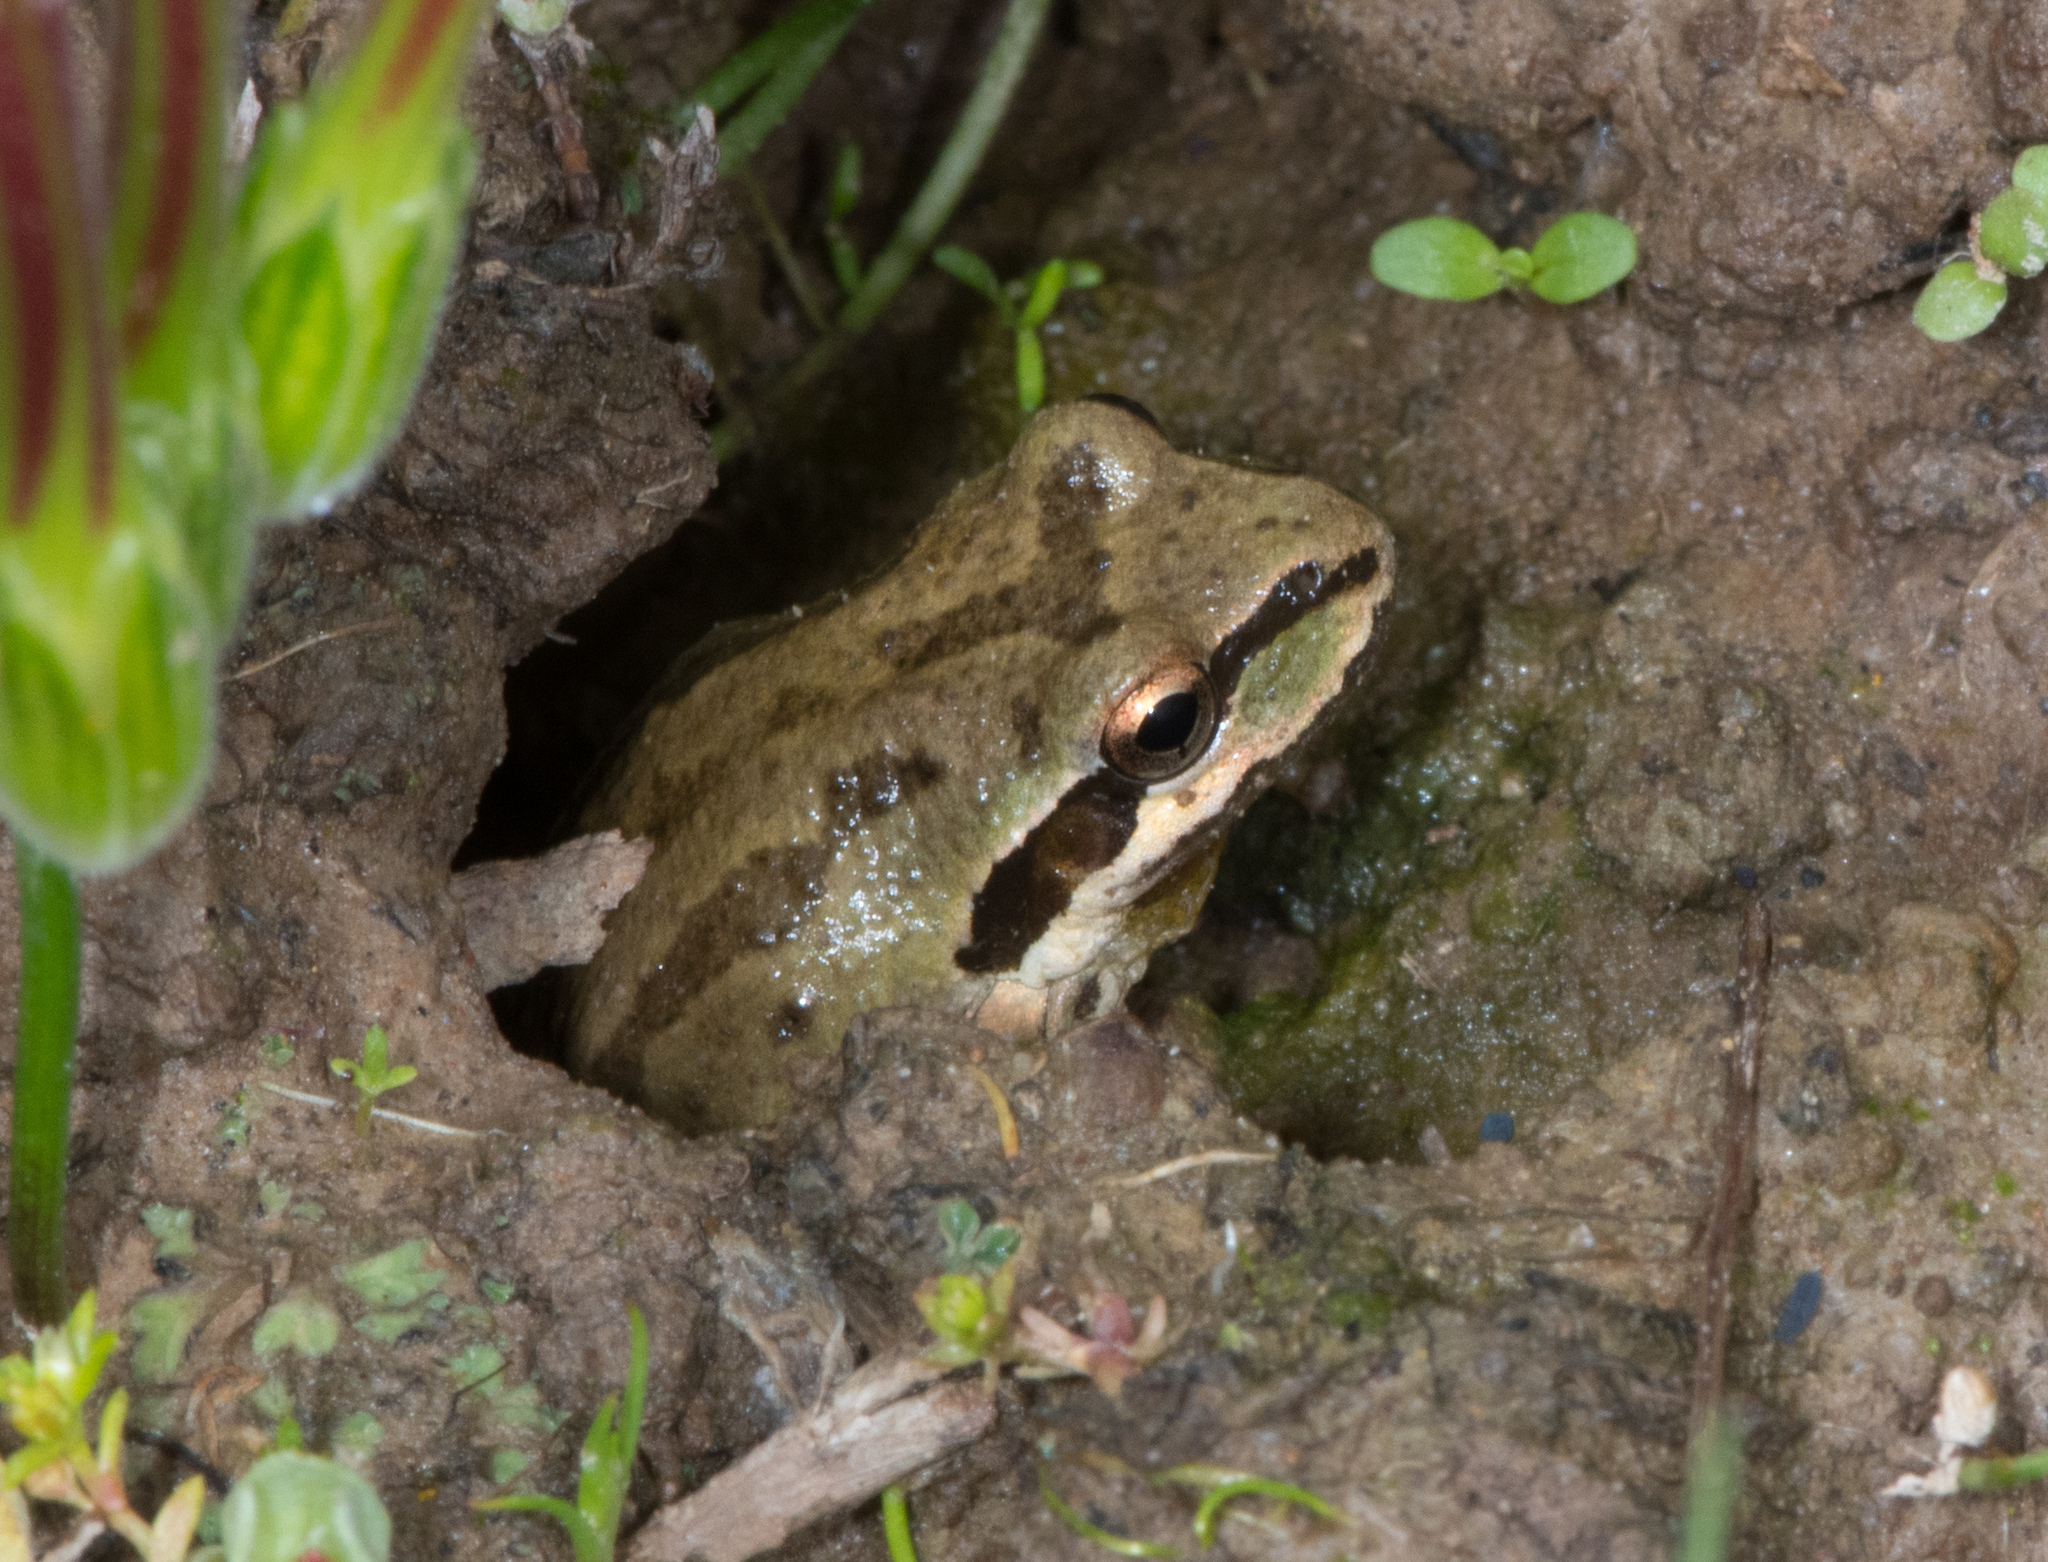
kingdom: Animalia
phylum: Chordata
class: Amphibia
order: Anura
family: Hylidae
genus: Pseudacris
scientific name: Pseudacris regilla
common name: Pacific chorus frog
